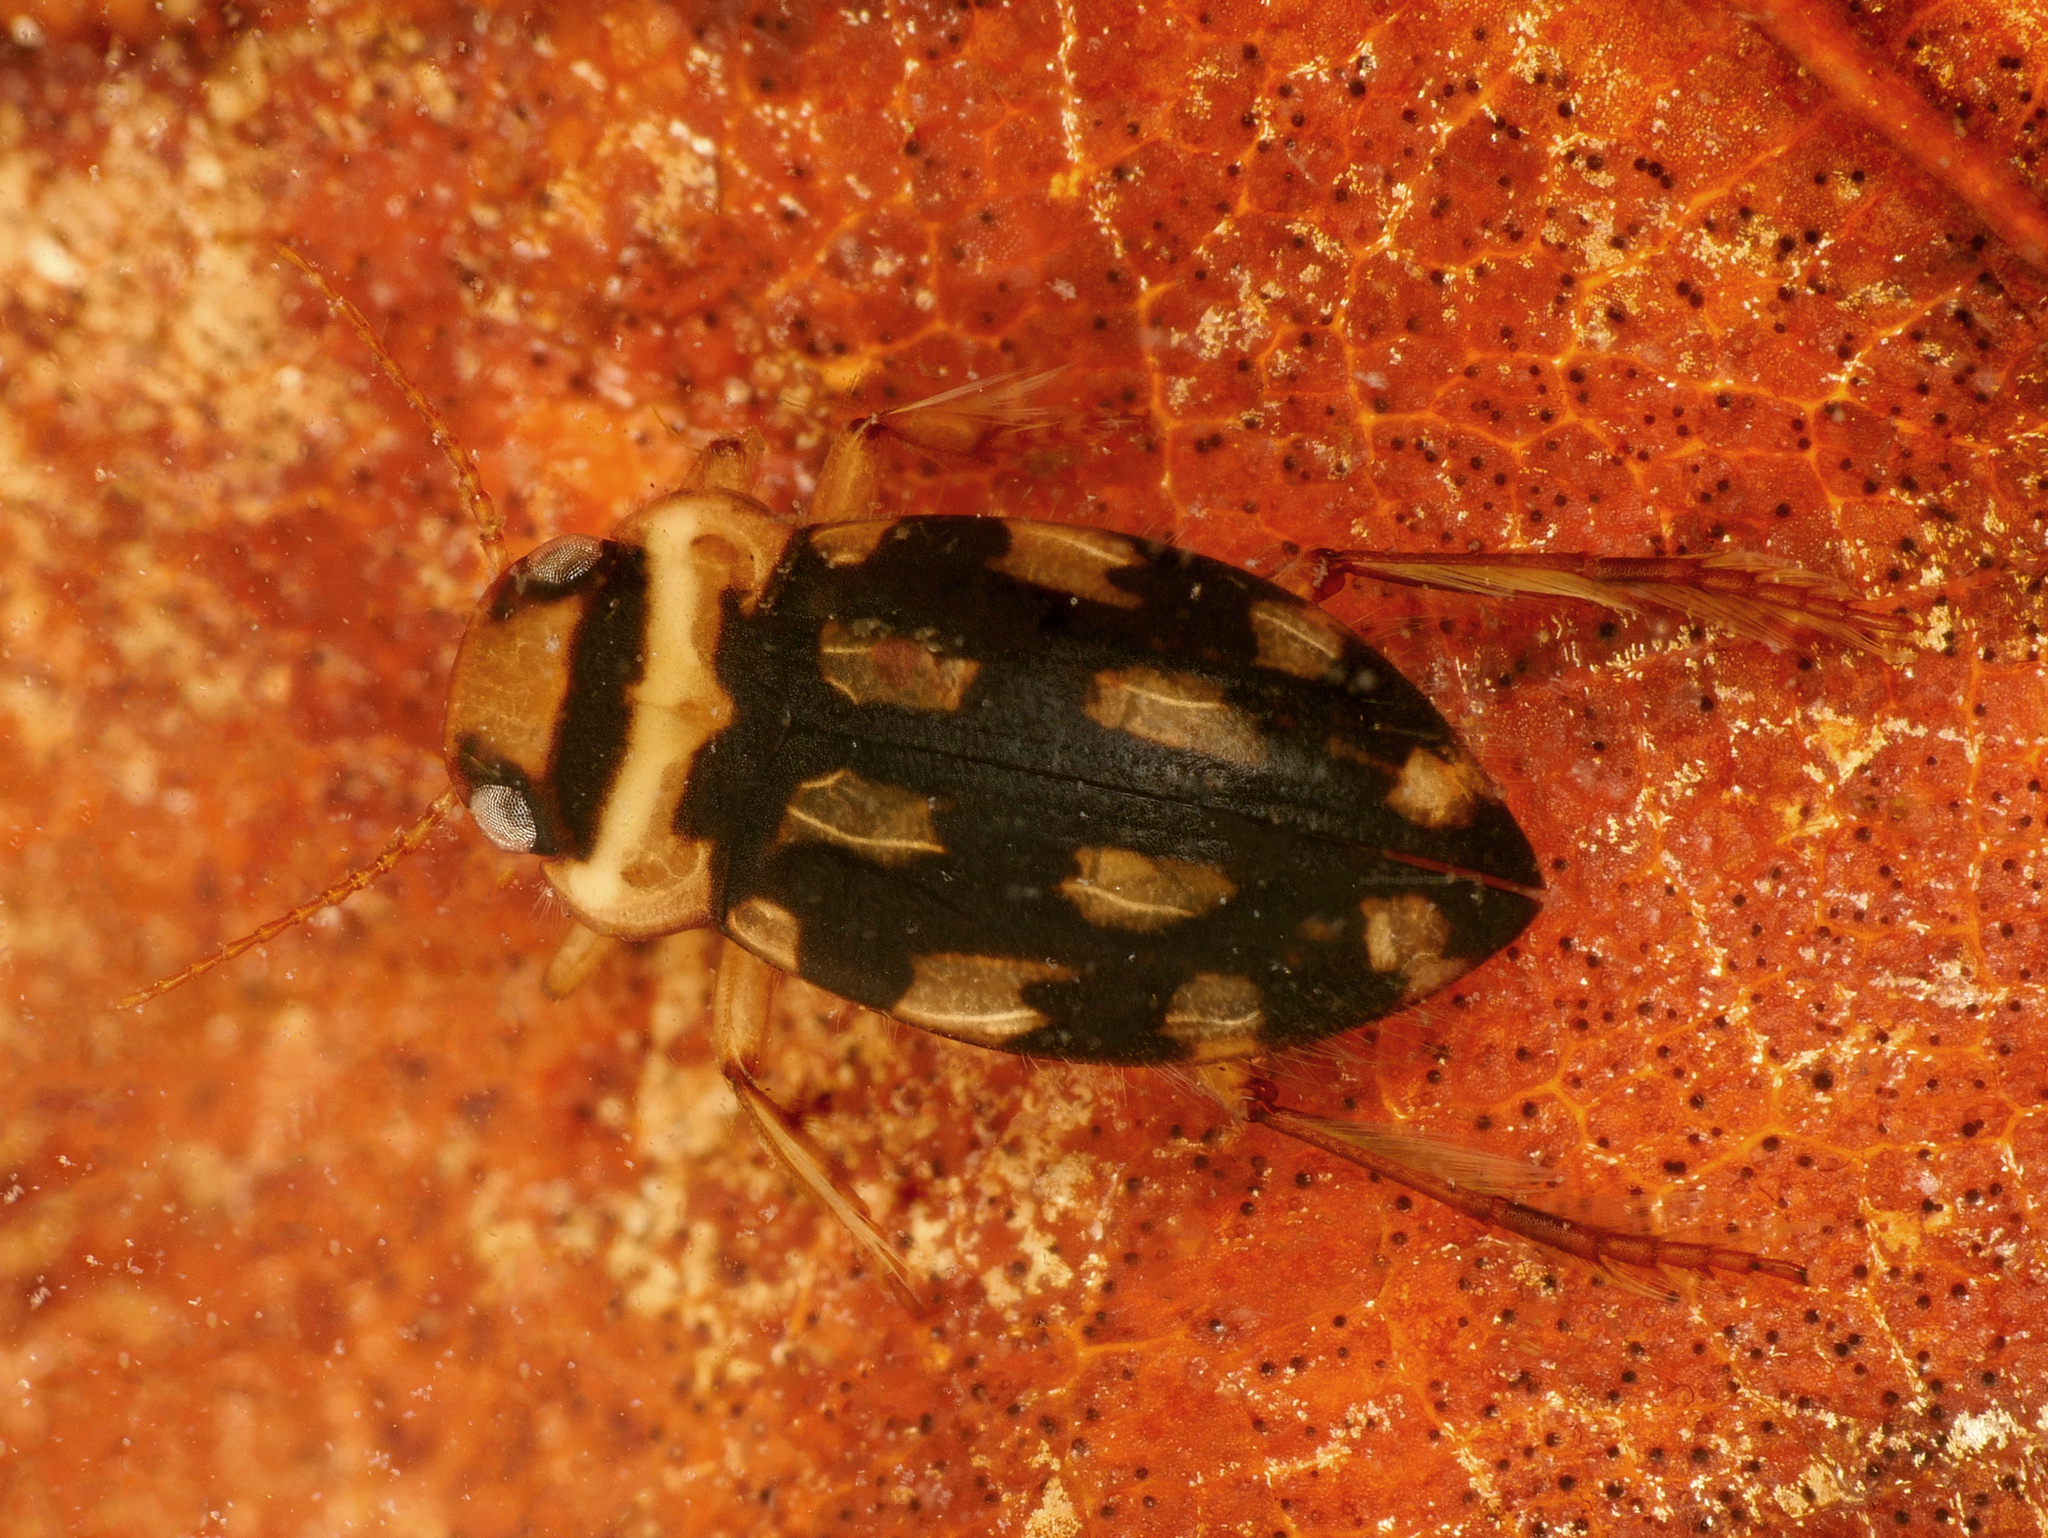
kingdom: Animalia
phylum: Arthropoda
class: Insecta
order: Coleoptera
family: Dytiscidae
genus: Stictotarsus
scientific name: Stictotarsus duodecimpustulatus
